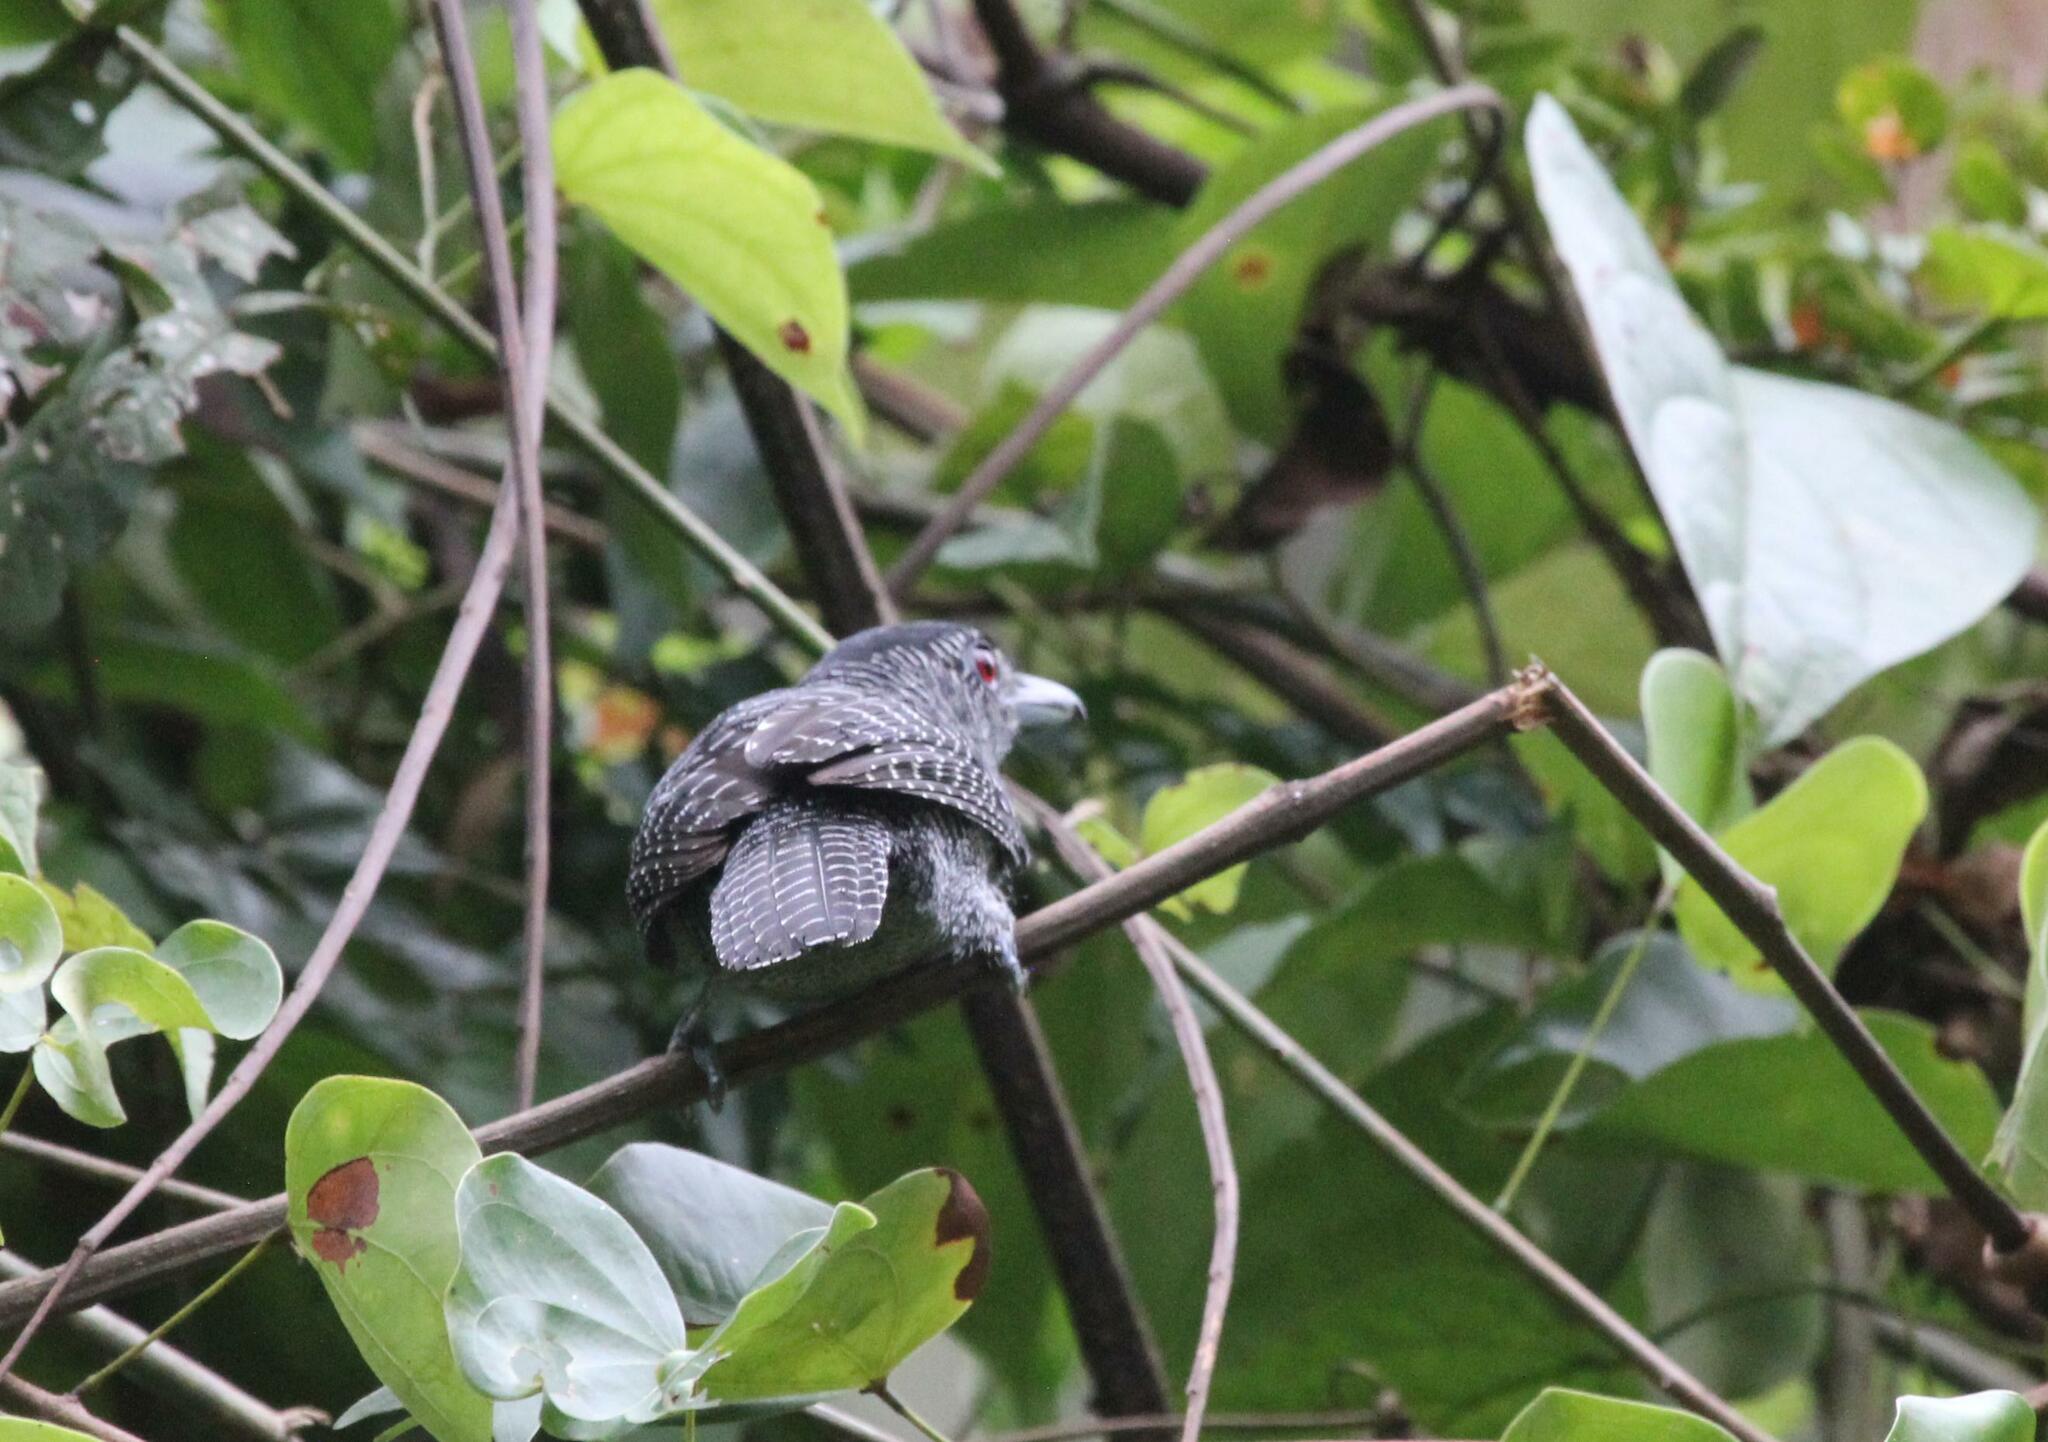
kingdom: Animalia
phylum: Chordata
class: Aves
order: Passeriformes
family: Thamnophilidae
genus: Cymbilaimus
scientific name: Cymbilaimus lineatus
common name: Fasciated antshrike
